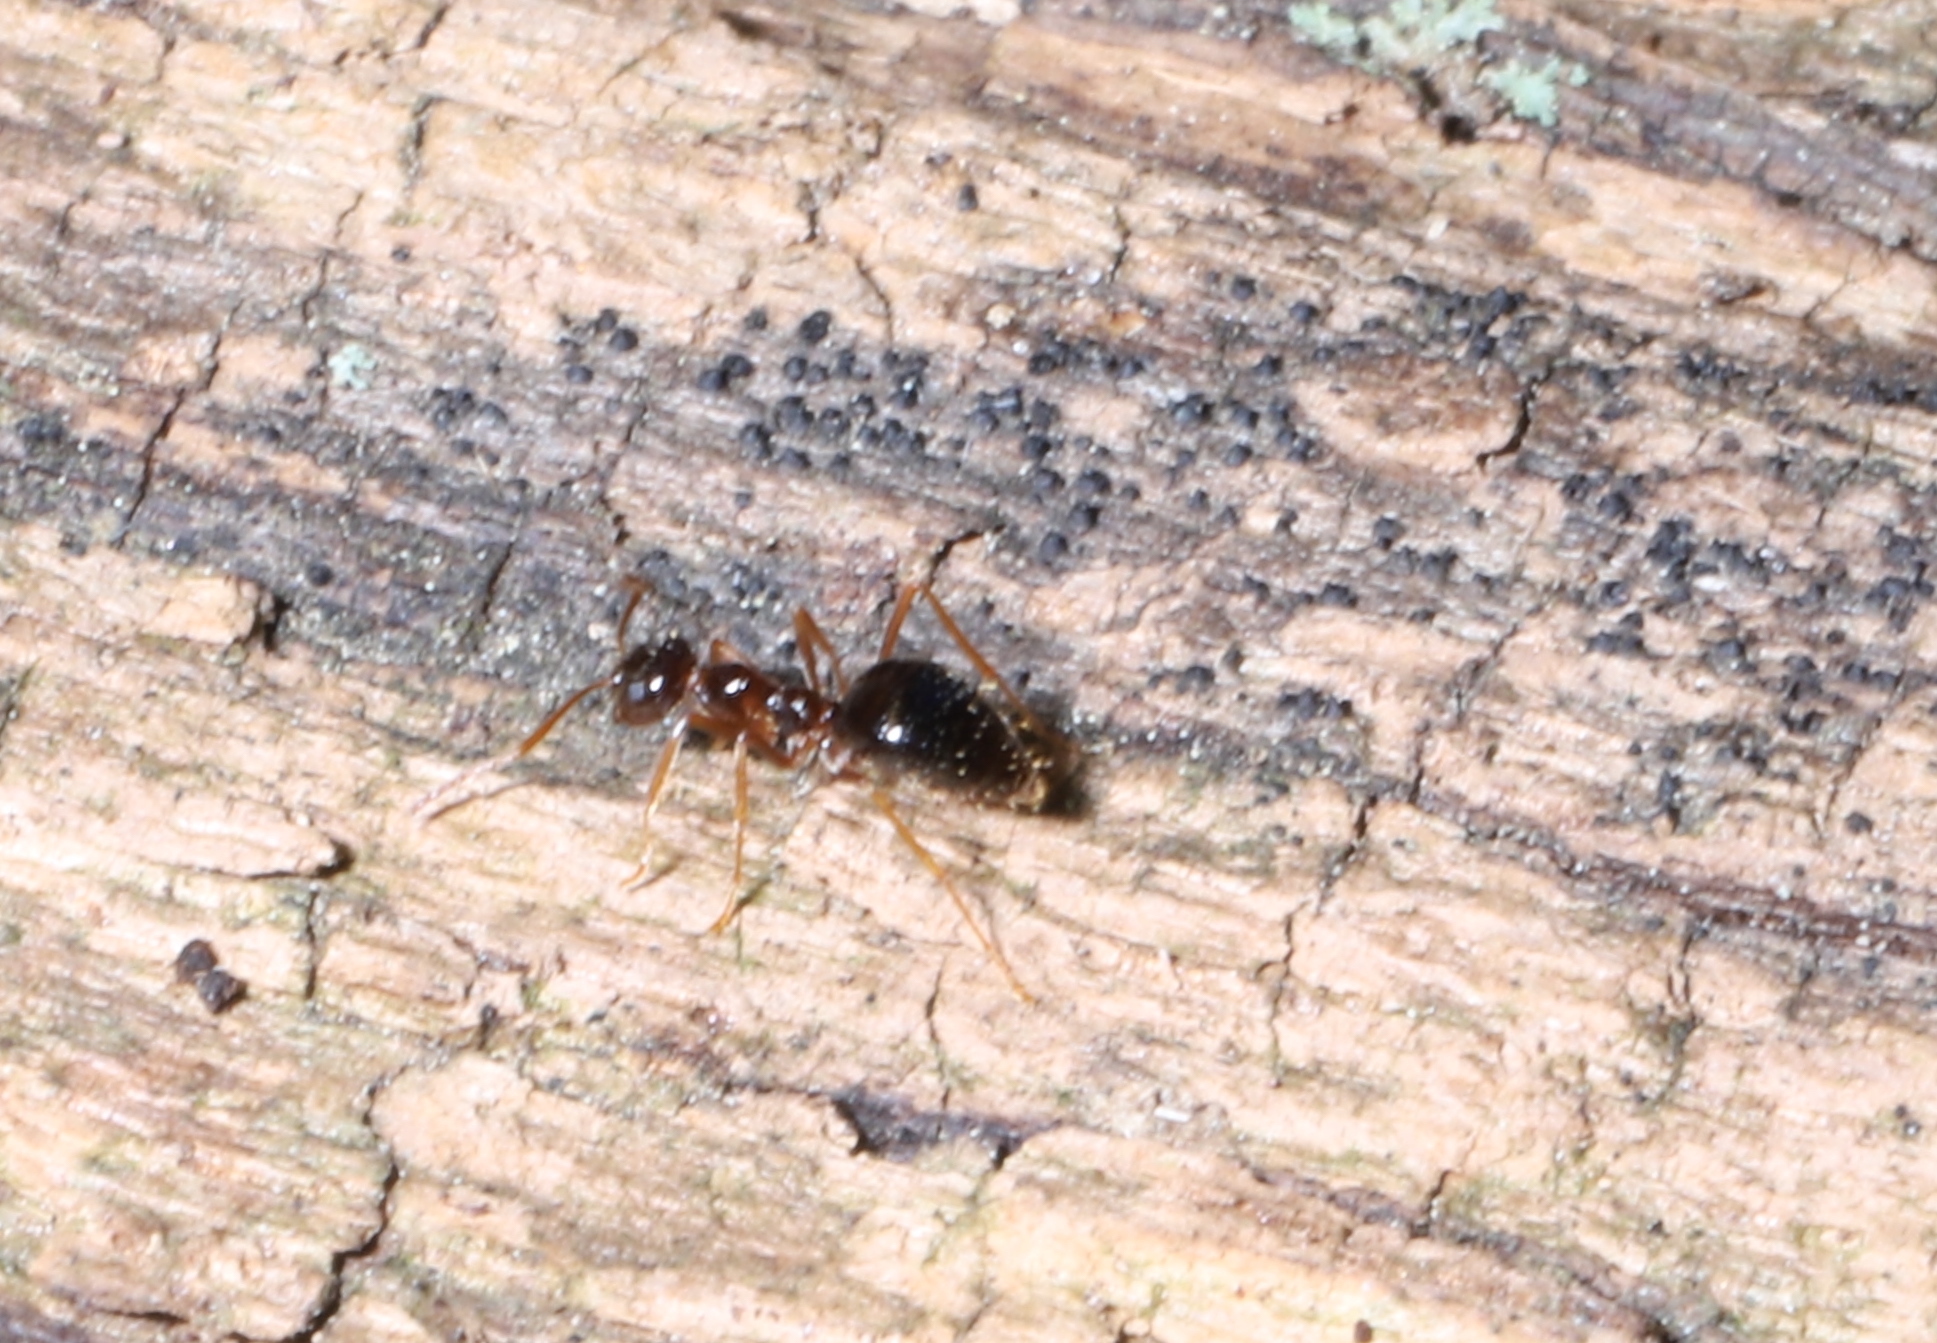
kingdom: Animalia
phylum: Arthropoda
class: Insecta
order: Hymenoptera
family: Formicidae
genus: Prenolepis
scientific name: Prenolepis imparis
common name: Small honey ant
